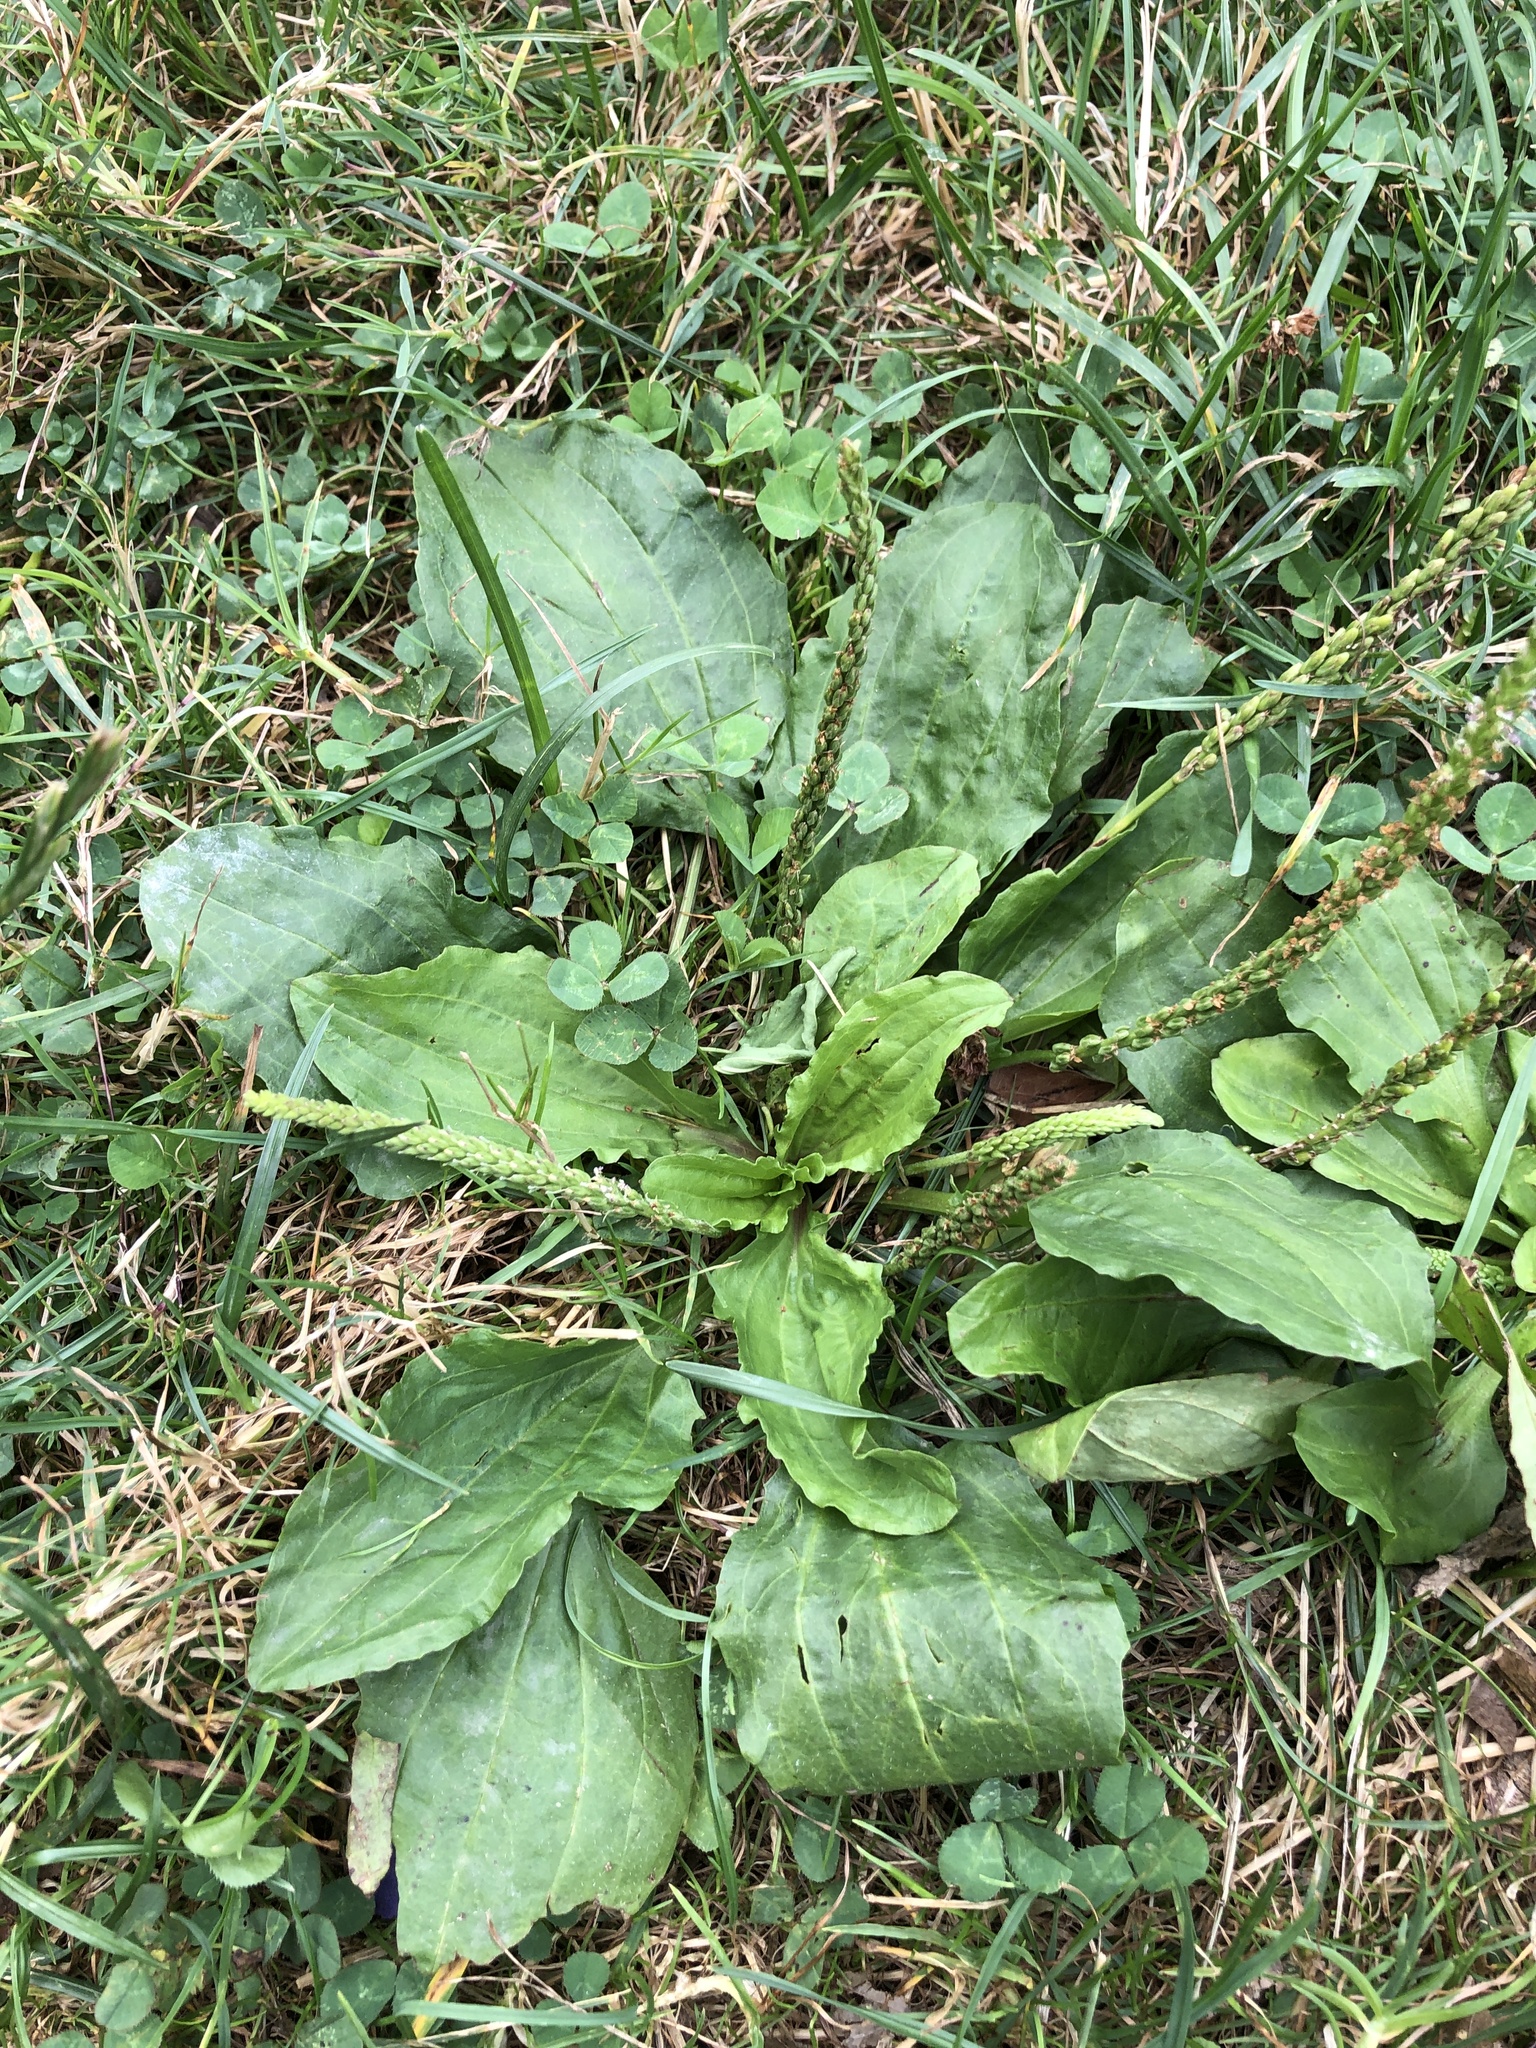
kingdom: Plantae
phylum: Tracheophyta
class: Magnoliopsida
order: Lamiales
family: Plantaginaceae
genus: Plantago
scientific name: Plantago rugelii
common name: American plantain
